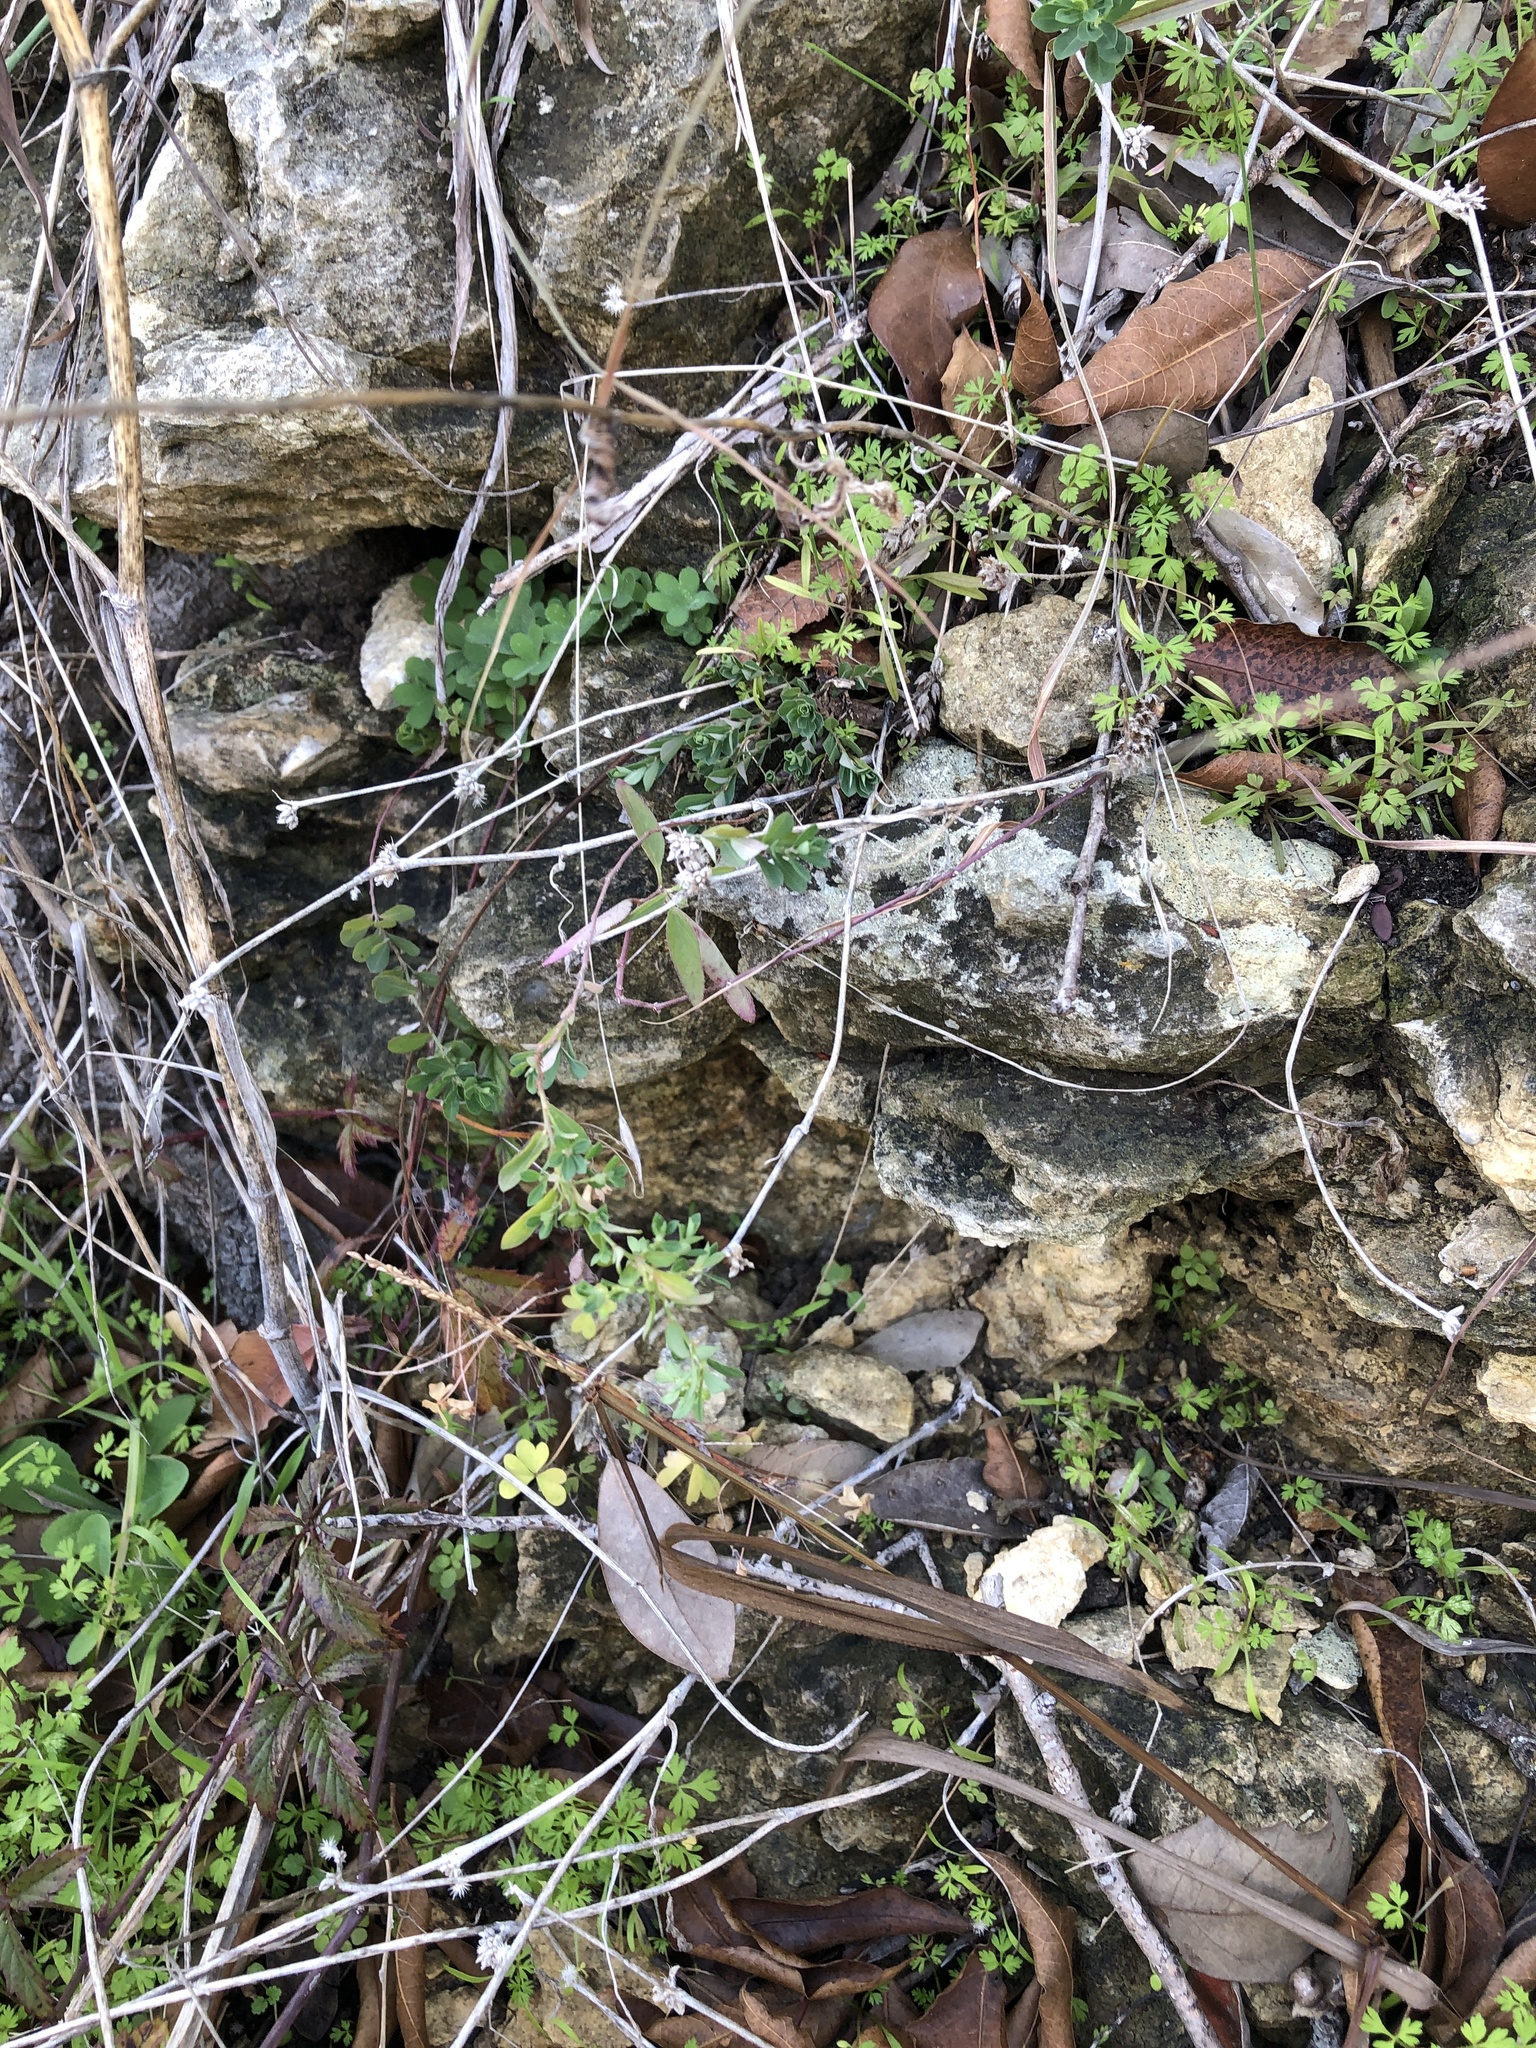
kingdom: Plantae
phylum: Tracheophyta
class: Magnoliopsida
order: Malpighiales
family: Phyllanthaceae
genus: Phyllanthus
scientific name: Phyllanthus polygonoides
